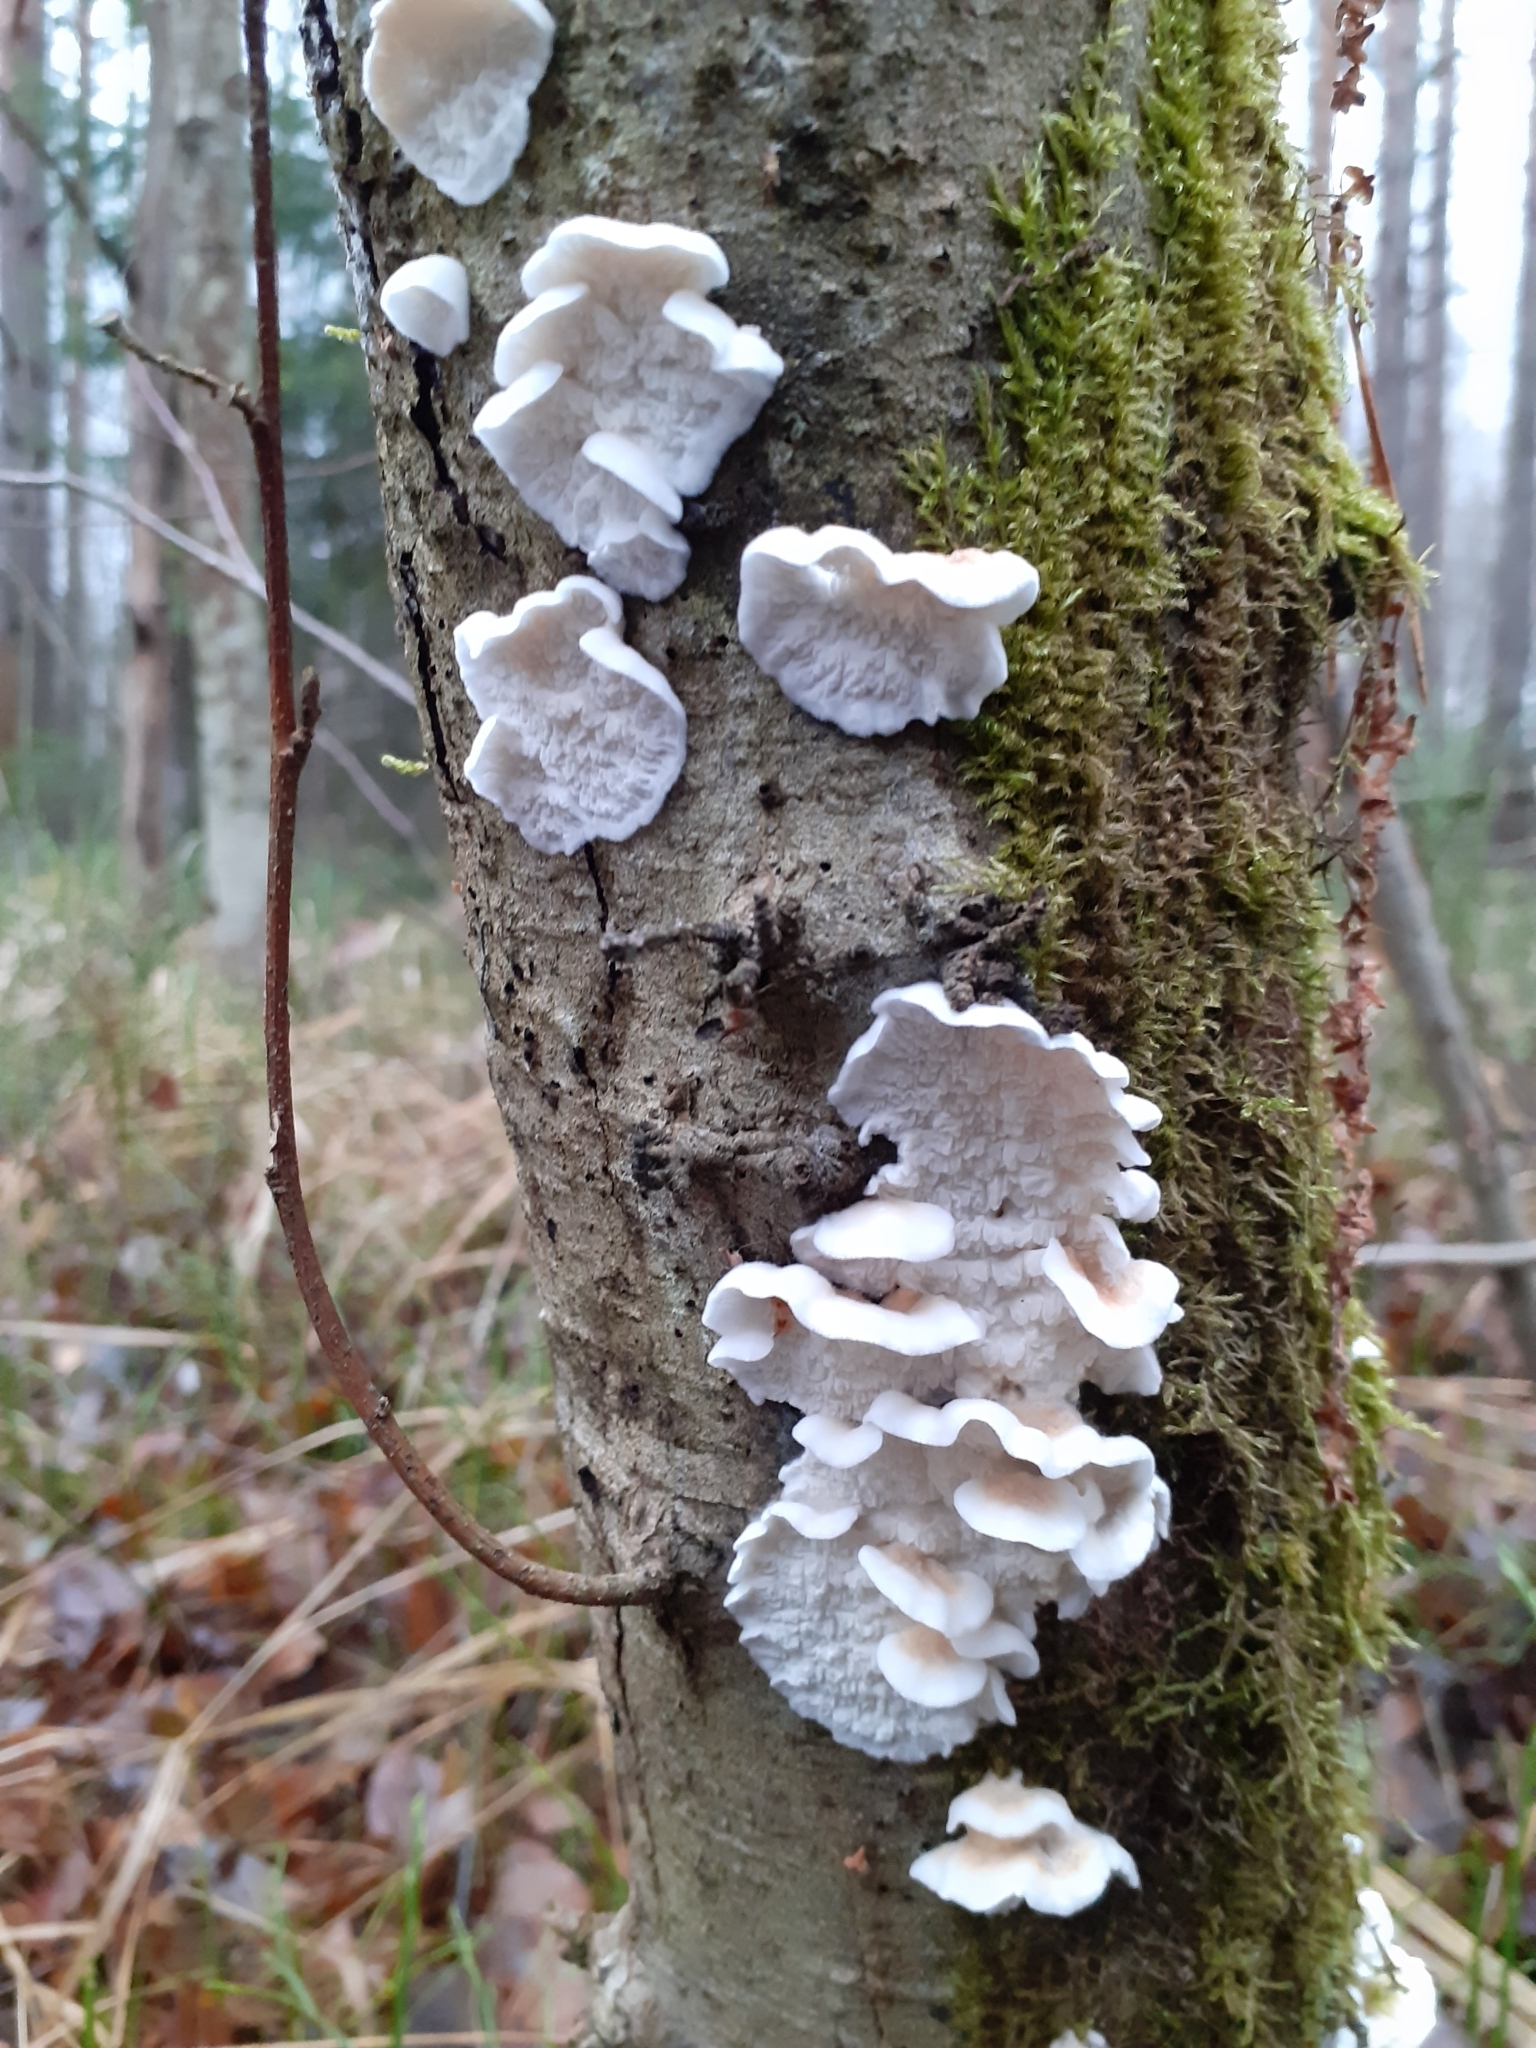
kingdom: Fungi
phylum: Basidiomycota
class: Agaricomycetes
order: Agaricales
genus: Plicatura
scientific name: Plicatura nivea
